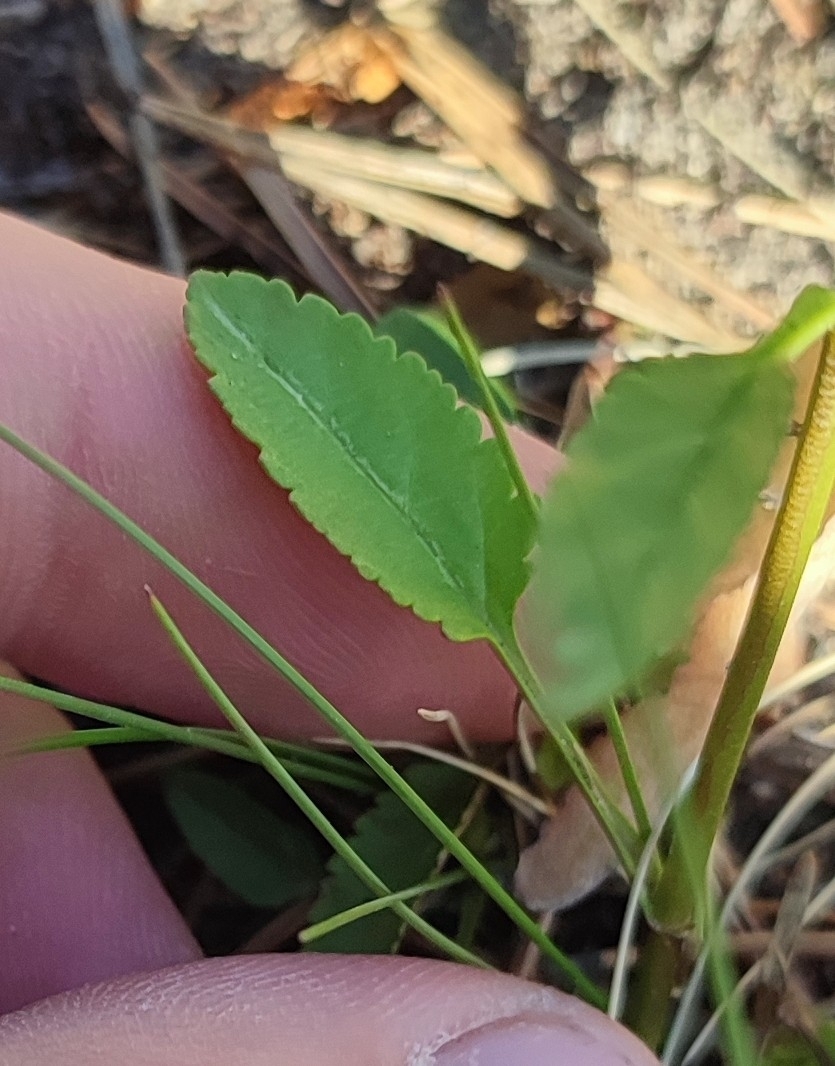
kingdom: Plantae
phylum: Tracheophyta
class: Magnoliopsida
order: Lamiales
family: Plantaginaceae
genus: Veronica
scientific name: Veronica spicata
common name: Spiked speedwell
